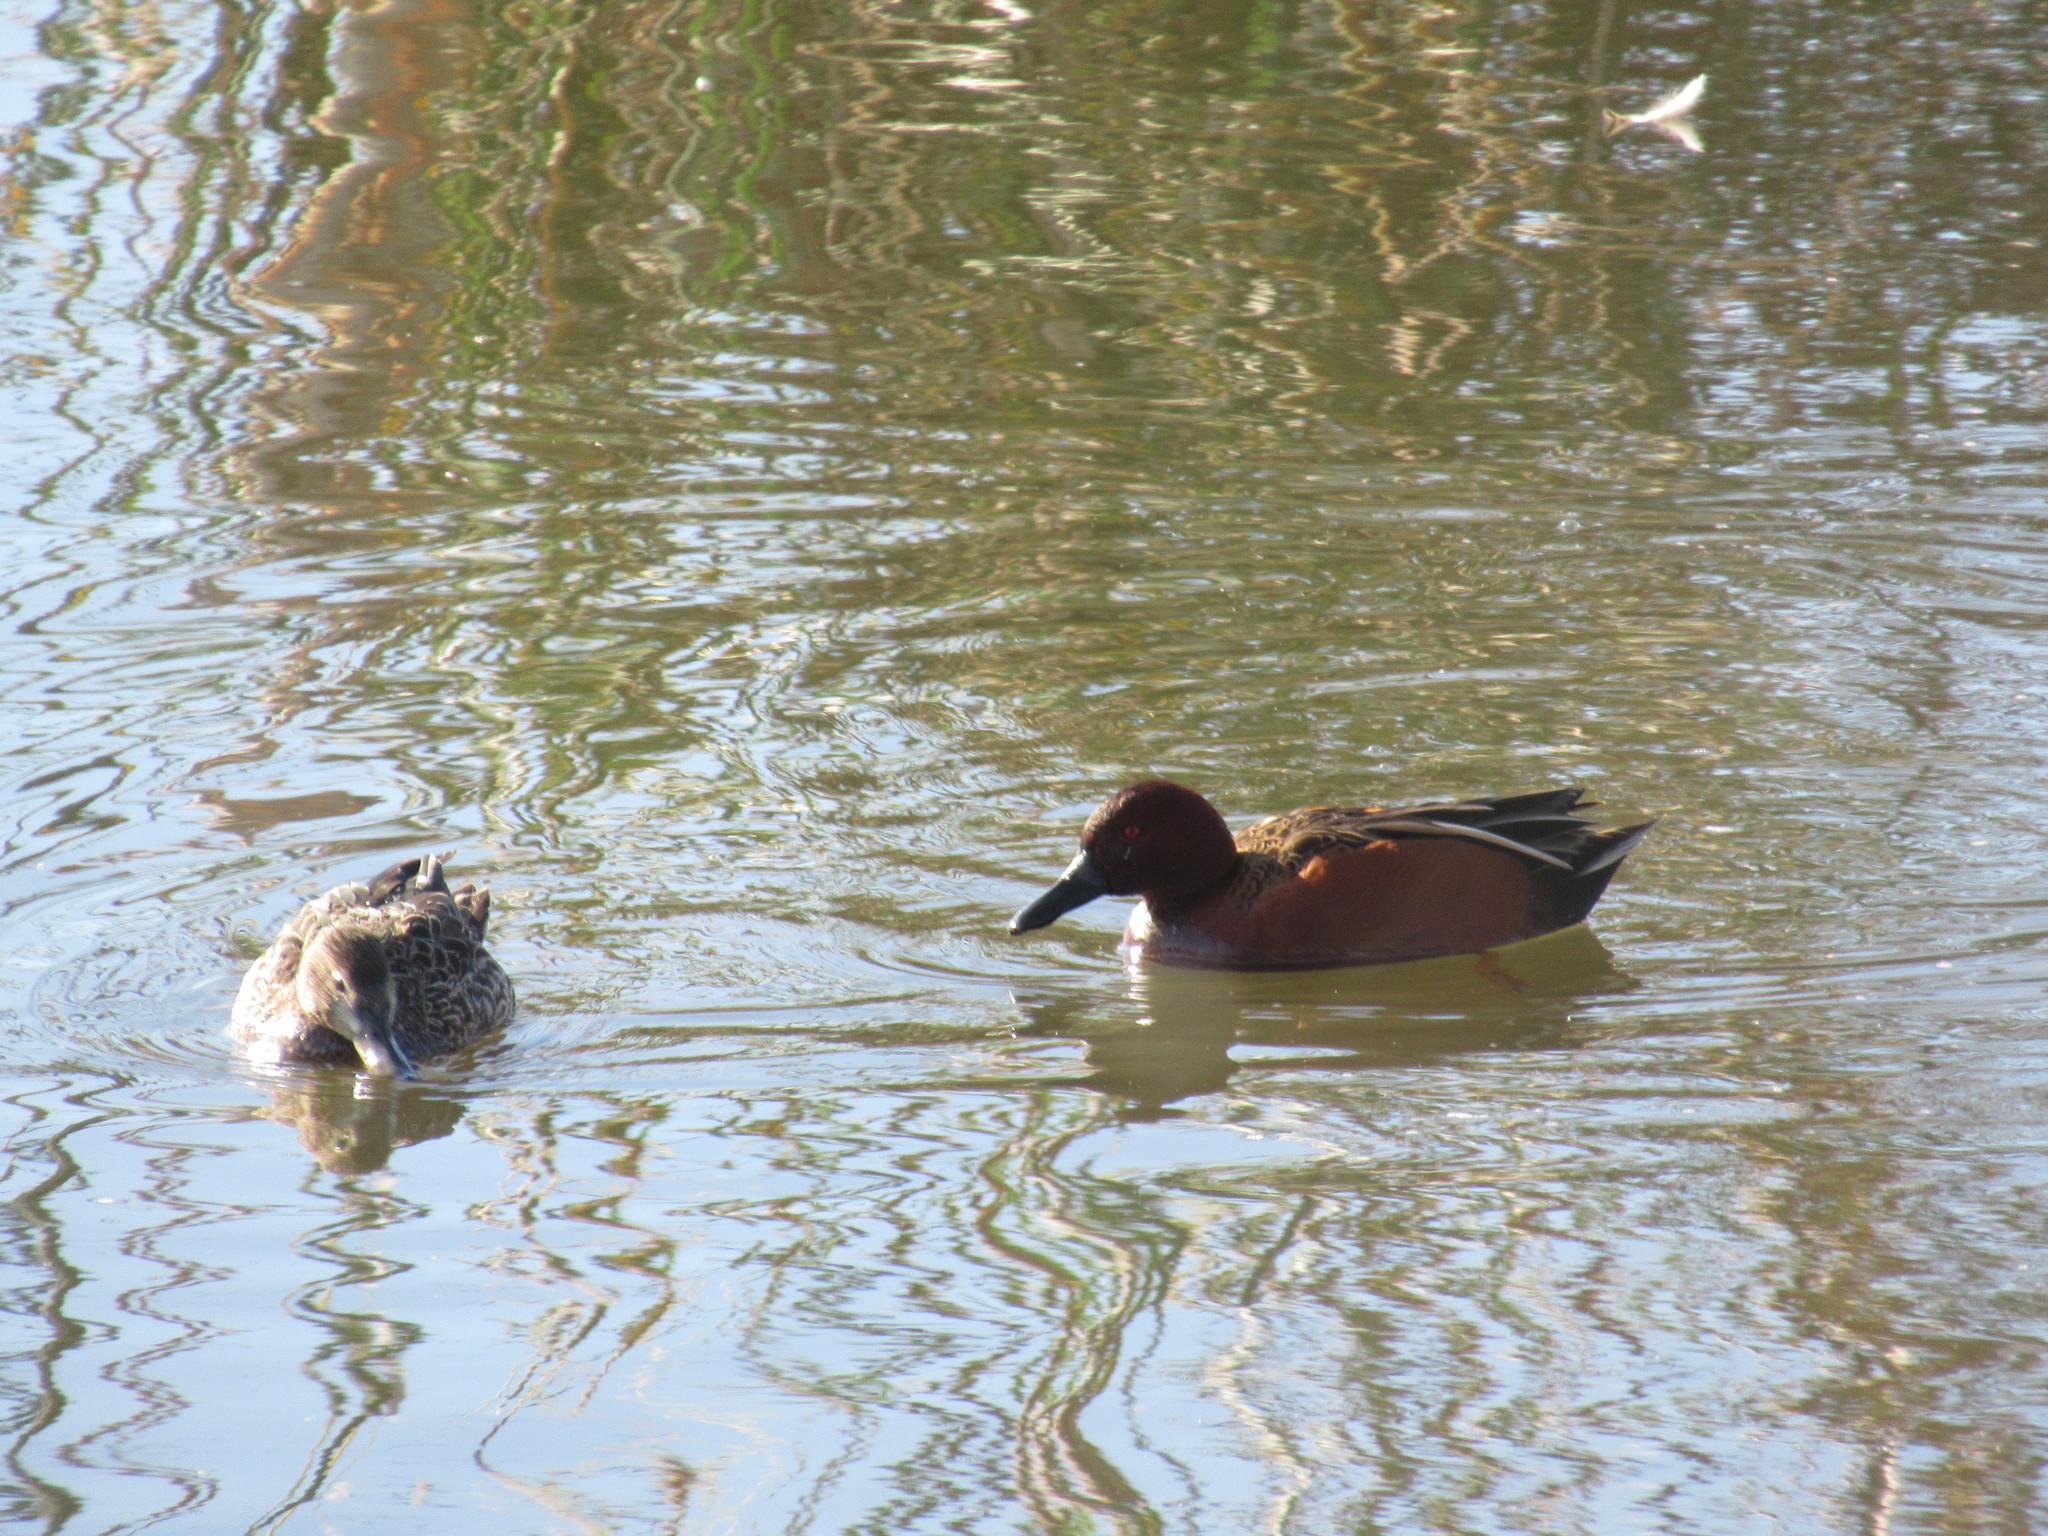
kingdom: Animalia
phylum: Chordata
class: Aves
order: Anseriformes
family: Anatidae
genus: Spatula
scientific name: Spatula cyanoptera
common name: Cinnamon teal
